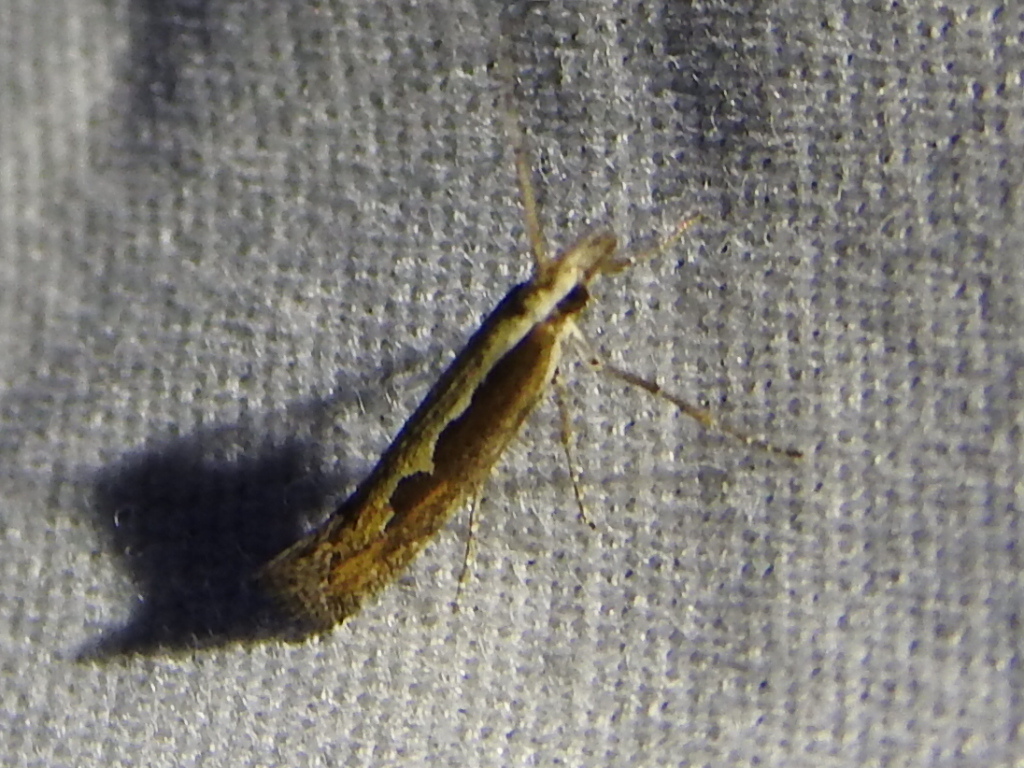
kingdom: Animalia
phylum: Arthropoda
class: Insecta
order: Lepidoptera
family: Plutellidae
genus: Plutella
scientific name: Plutella xylostella
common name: Diamond-back moth
